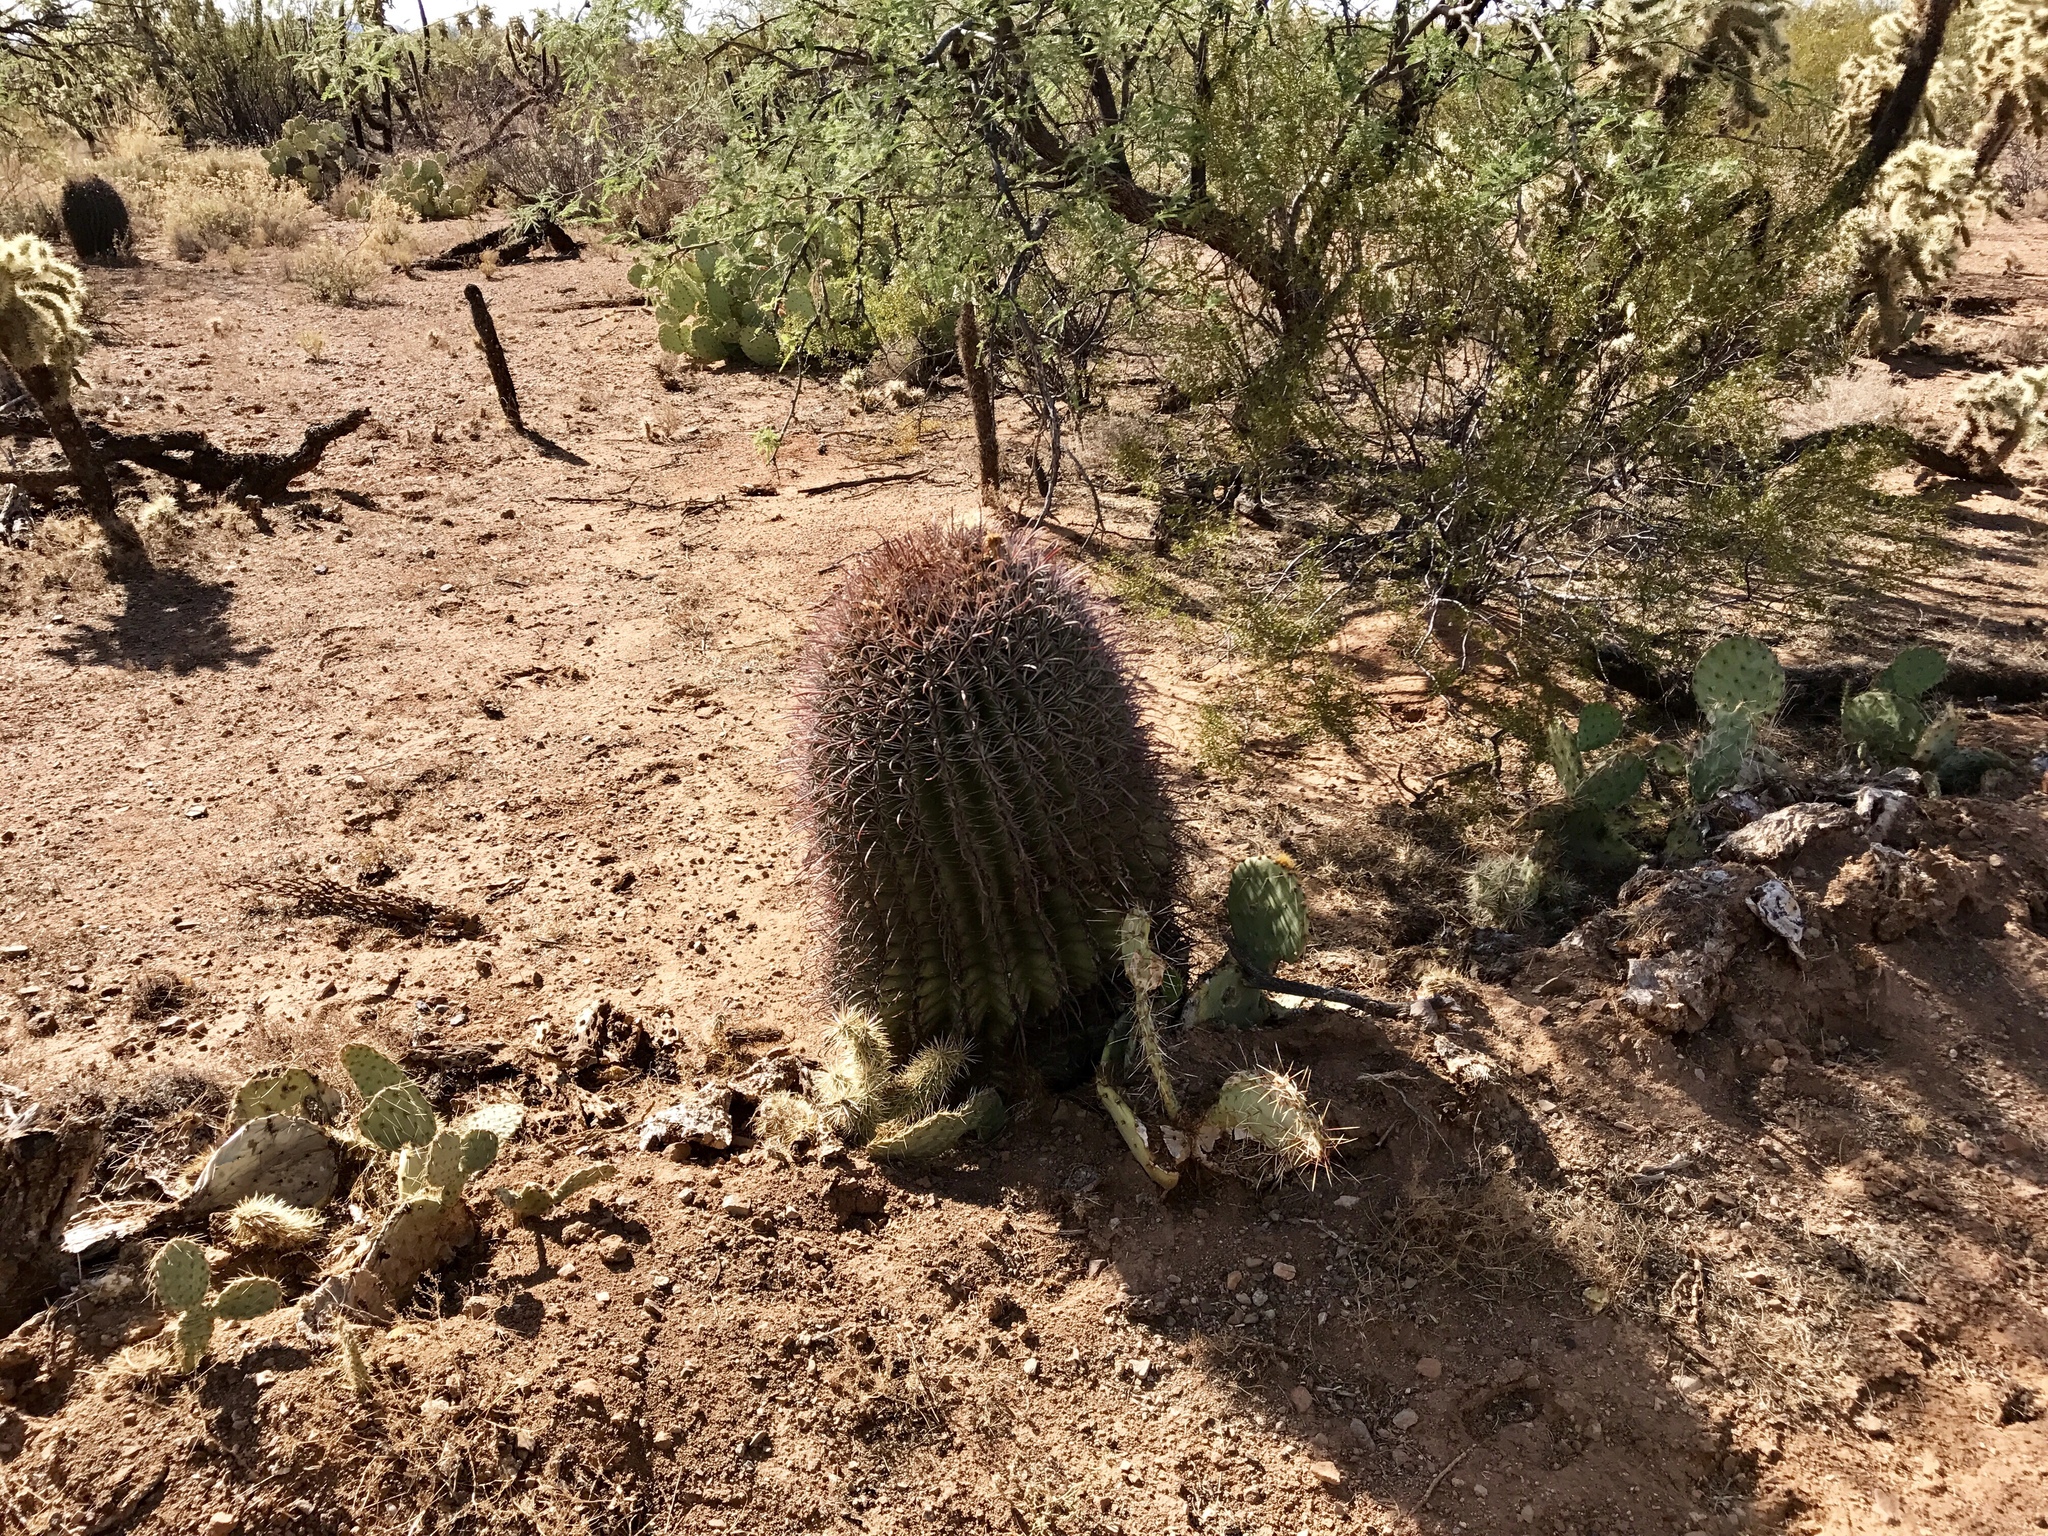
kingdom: Plantae
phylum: Tracheophyta
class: Magnoliopsida
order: Caryophyllales
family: Cactaceae
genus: Ferocactus
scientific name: Ferocactus wislizeni
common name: Candy barrel cactus
